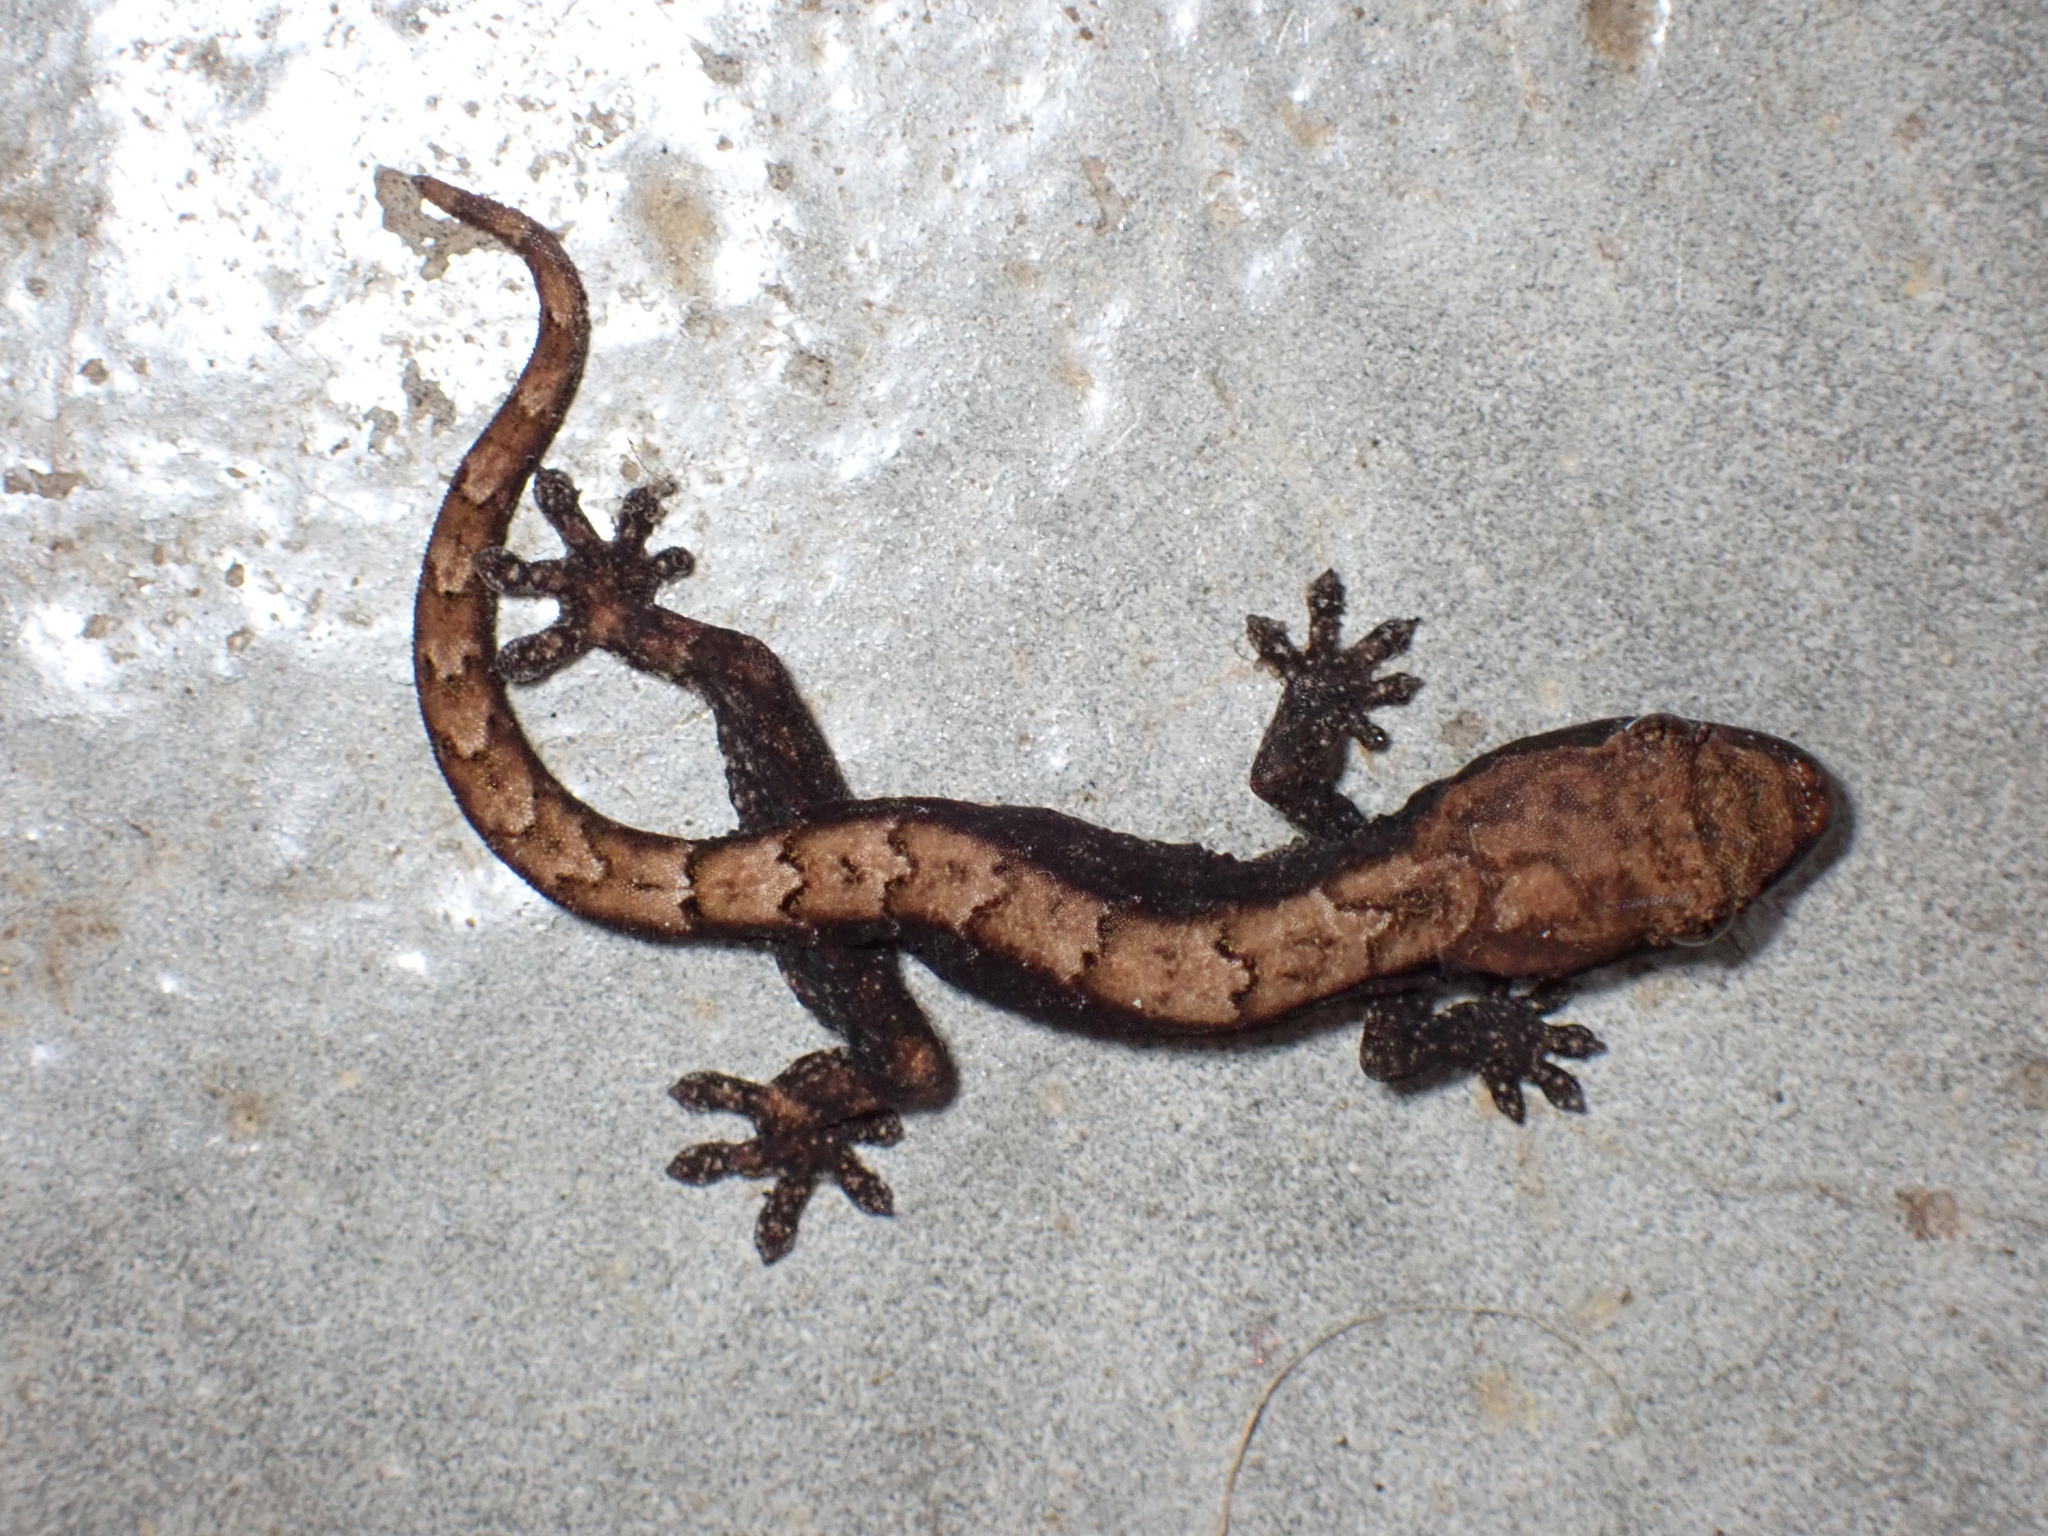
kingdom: Animalia
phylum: Chordata
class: Squamata
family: Gekkonidae
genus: Lepidodactylus
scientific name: Lepidodactylus lugubris
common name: Mourning gecko
